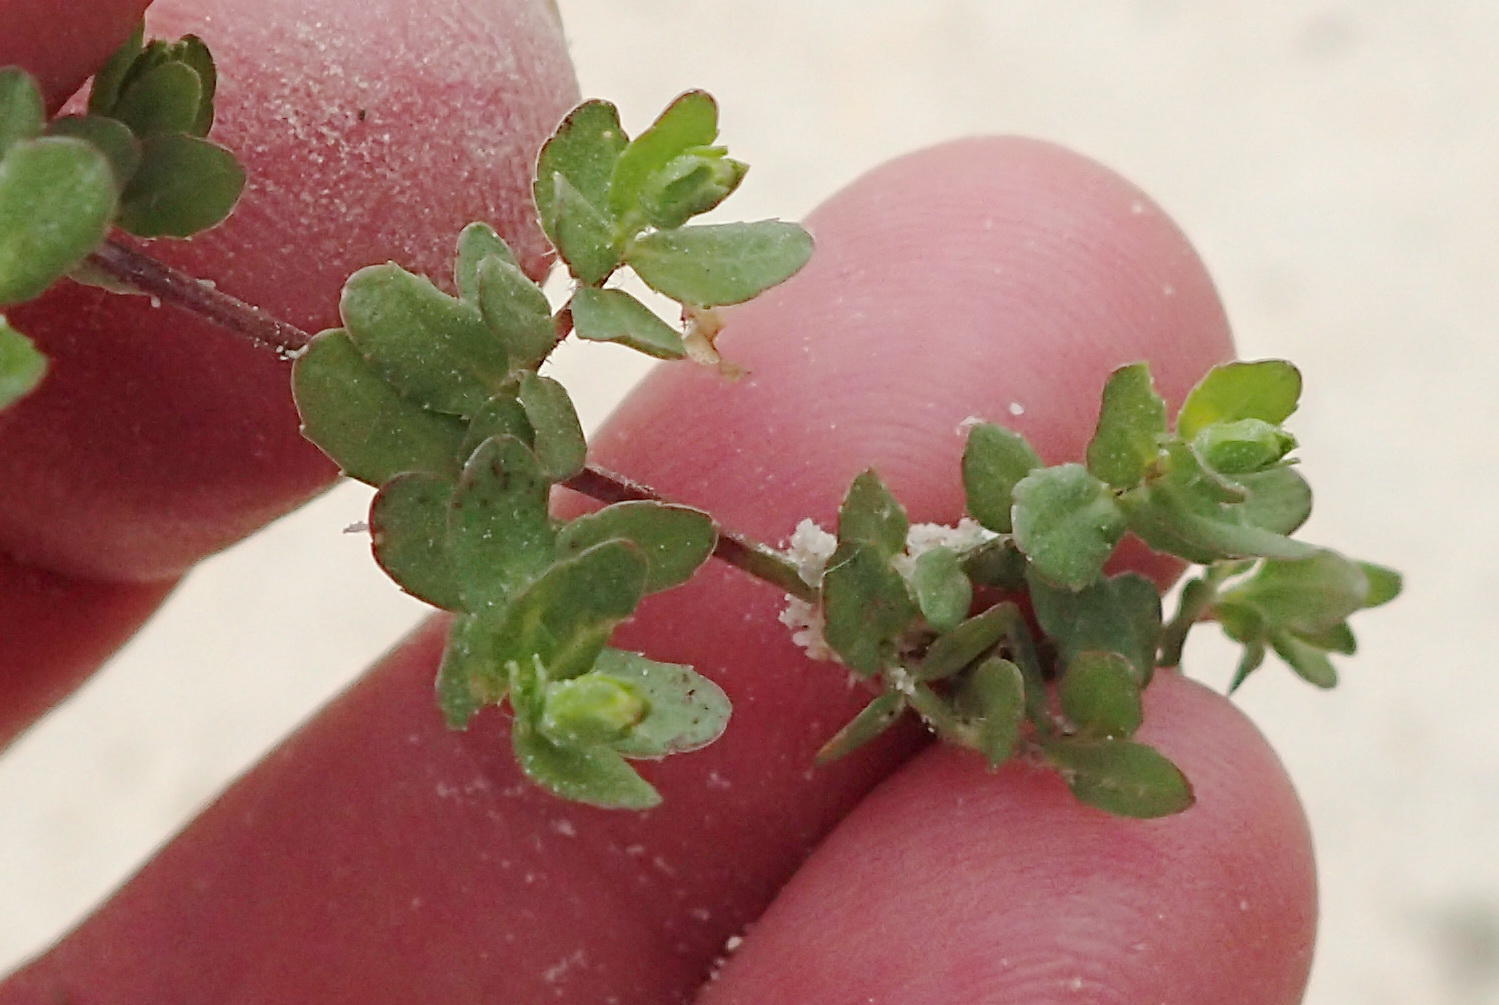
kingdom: Plantae
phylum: Tracheophyta
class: Magnoliopsida
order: Asterales
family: Campanulaceae
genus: Wahlenbergia
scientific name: Wahlenbergia procumbens
